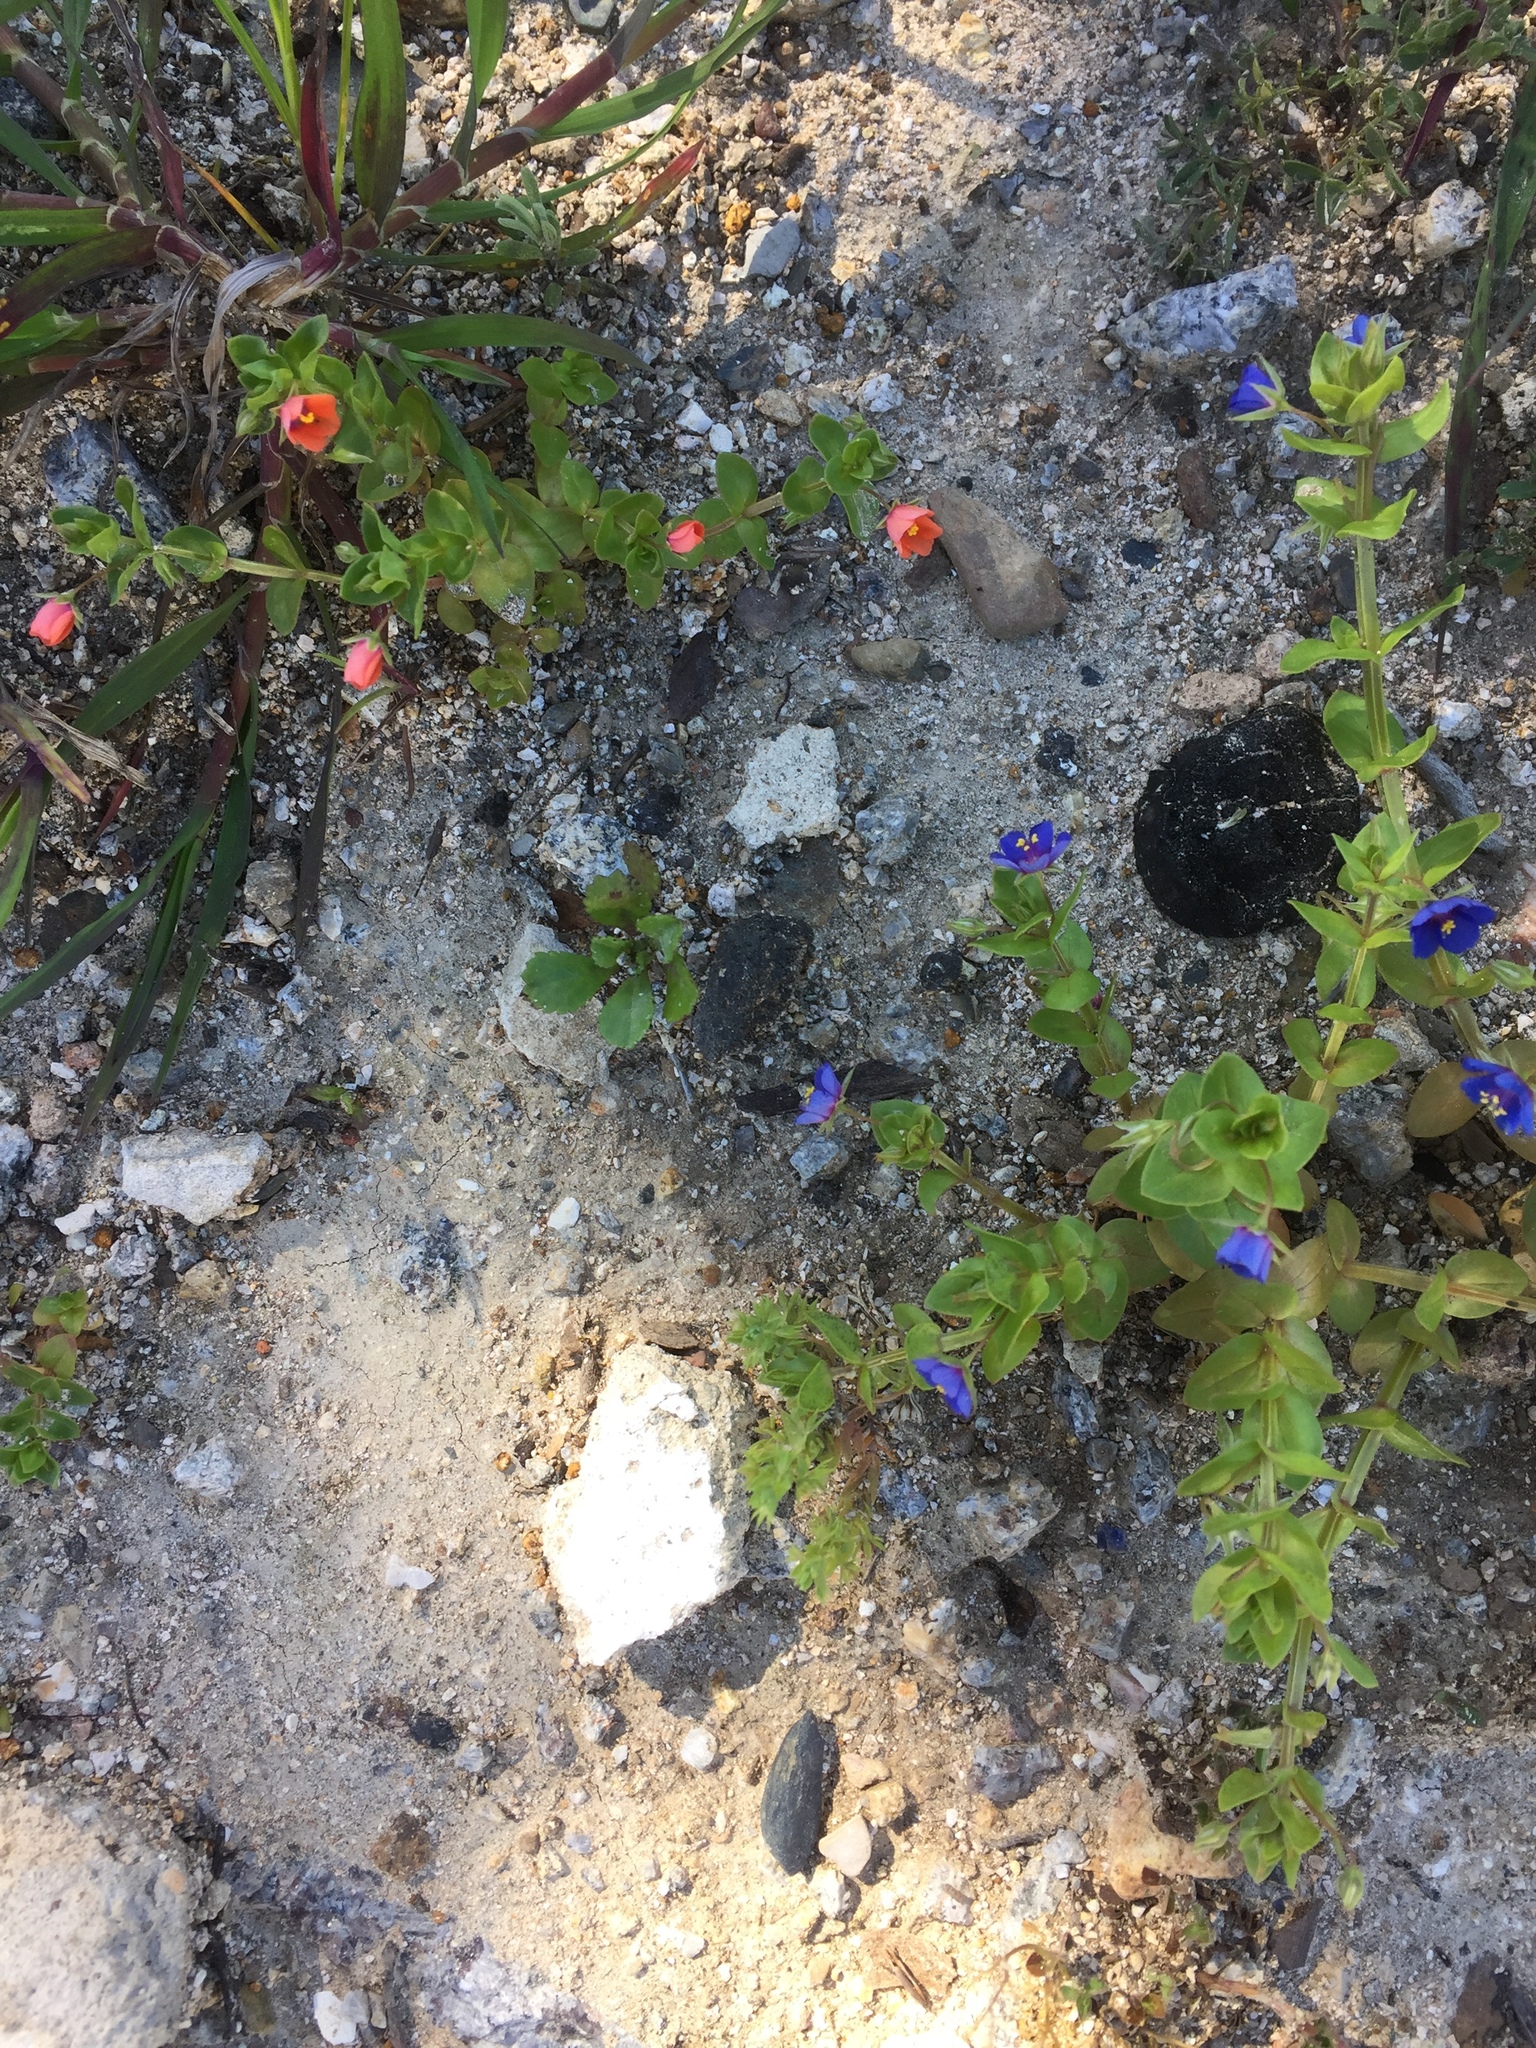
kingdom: Plantae
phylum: Tracheophyta
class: Magnoliopsida
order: Ericales
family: Primulaceae
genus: Lysimachia
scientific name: Lysimachia arvensis
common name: Scarlet pimpernel
